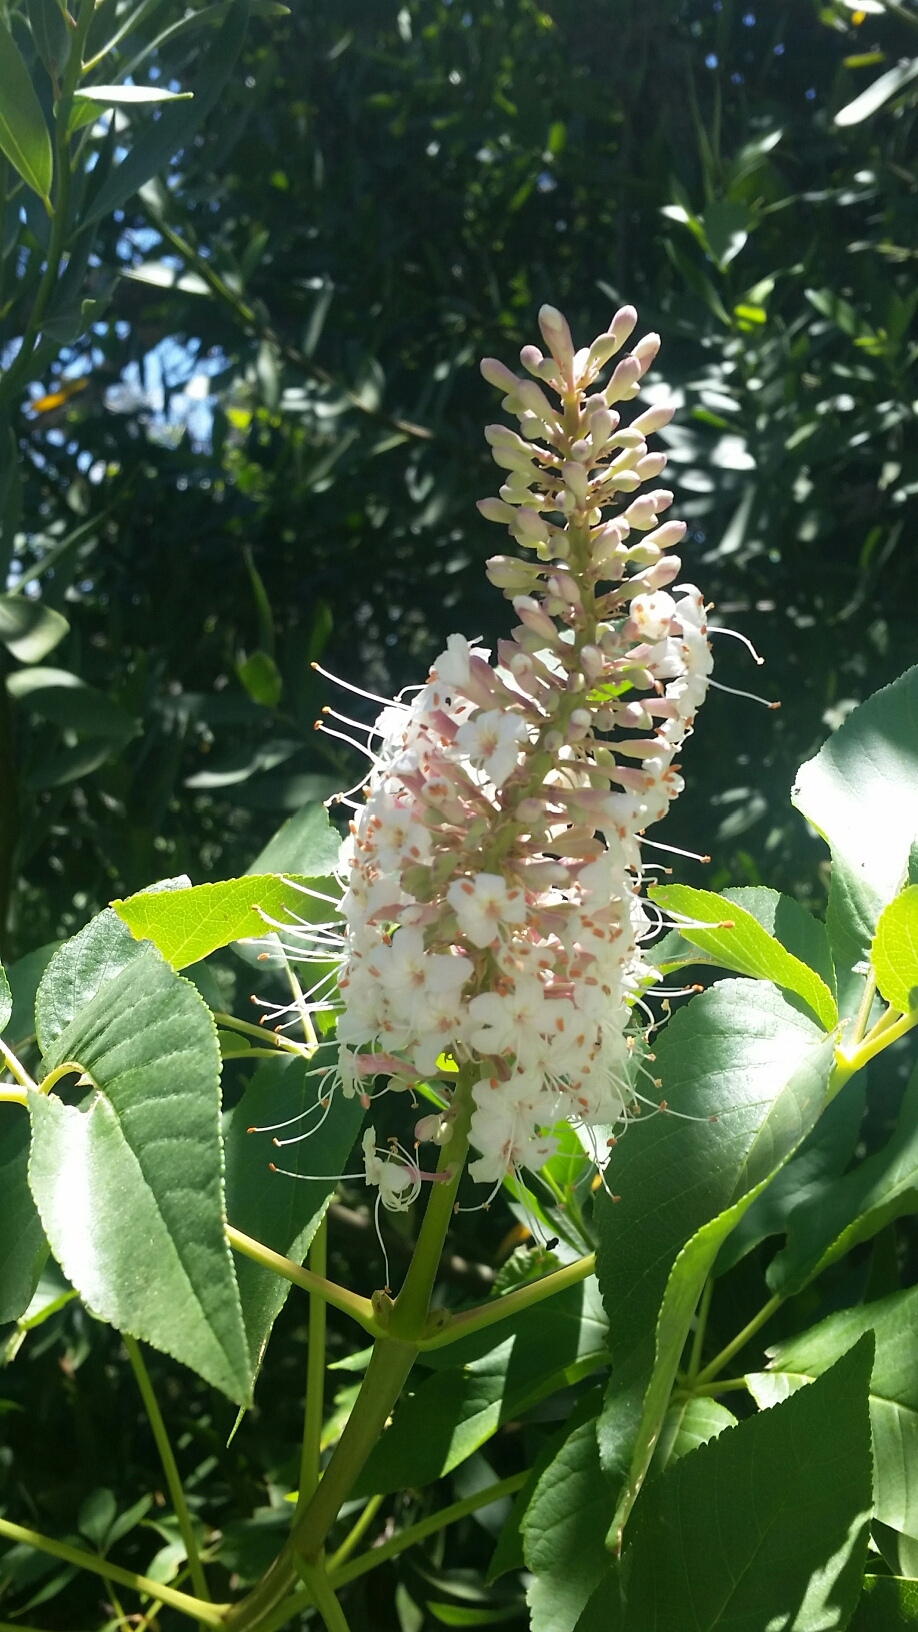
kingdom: Plantae
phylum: Tracheophyta
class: Magnoliopsida
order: Sapindales
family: Sapindaceae
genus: Aesculus
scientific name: Aesculus californica
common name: California buckeye
